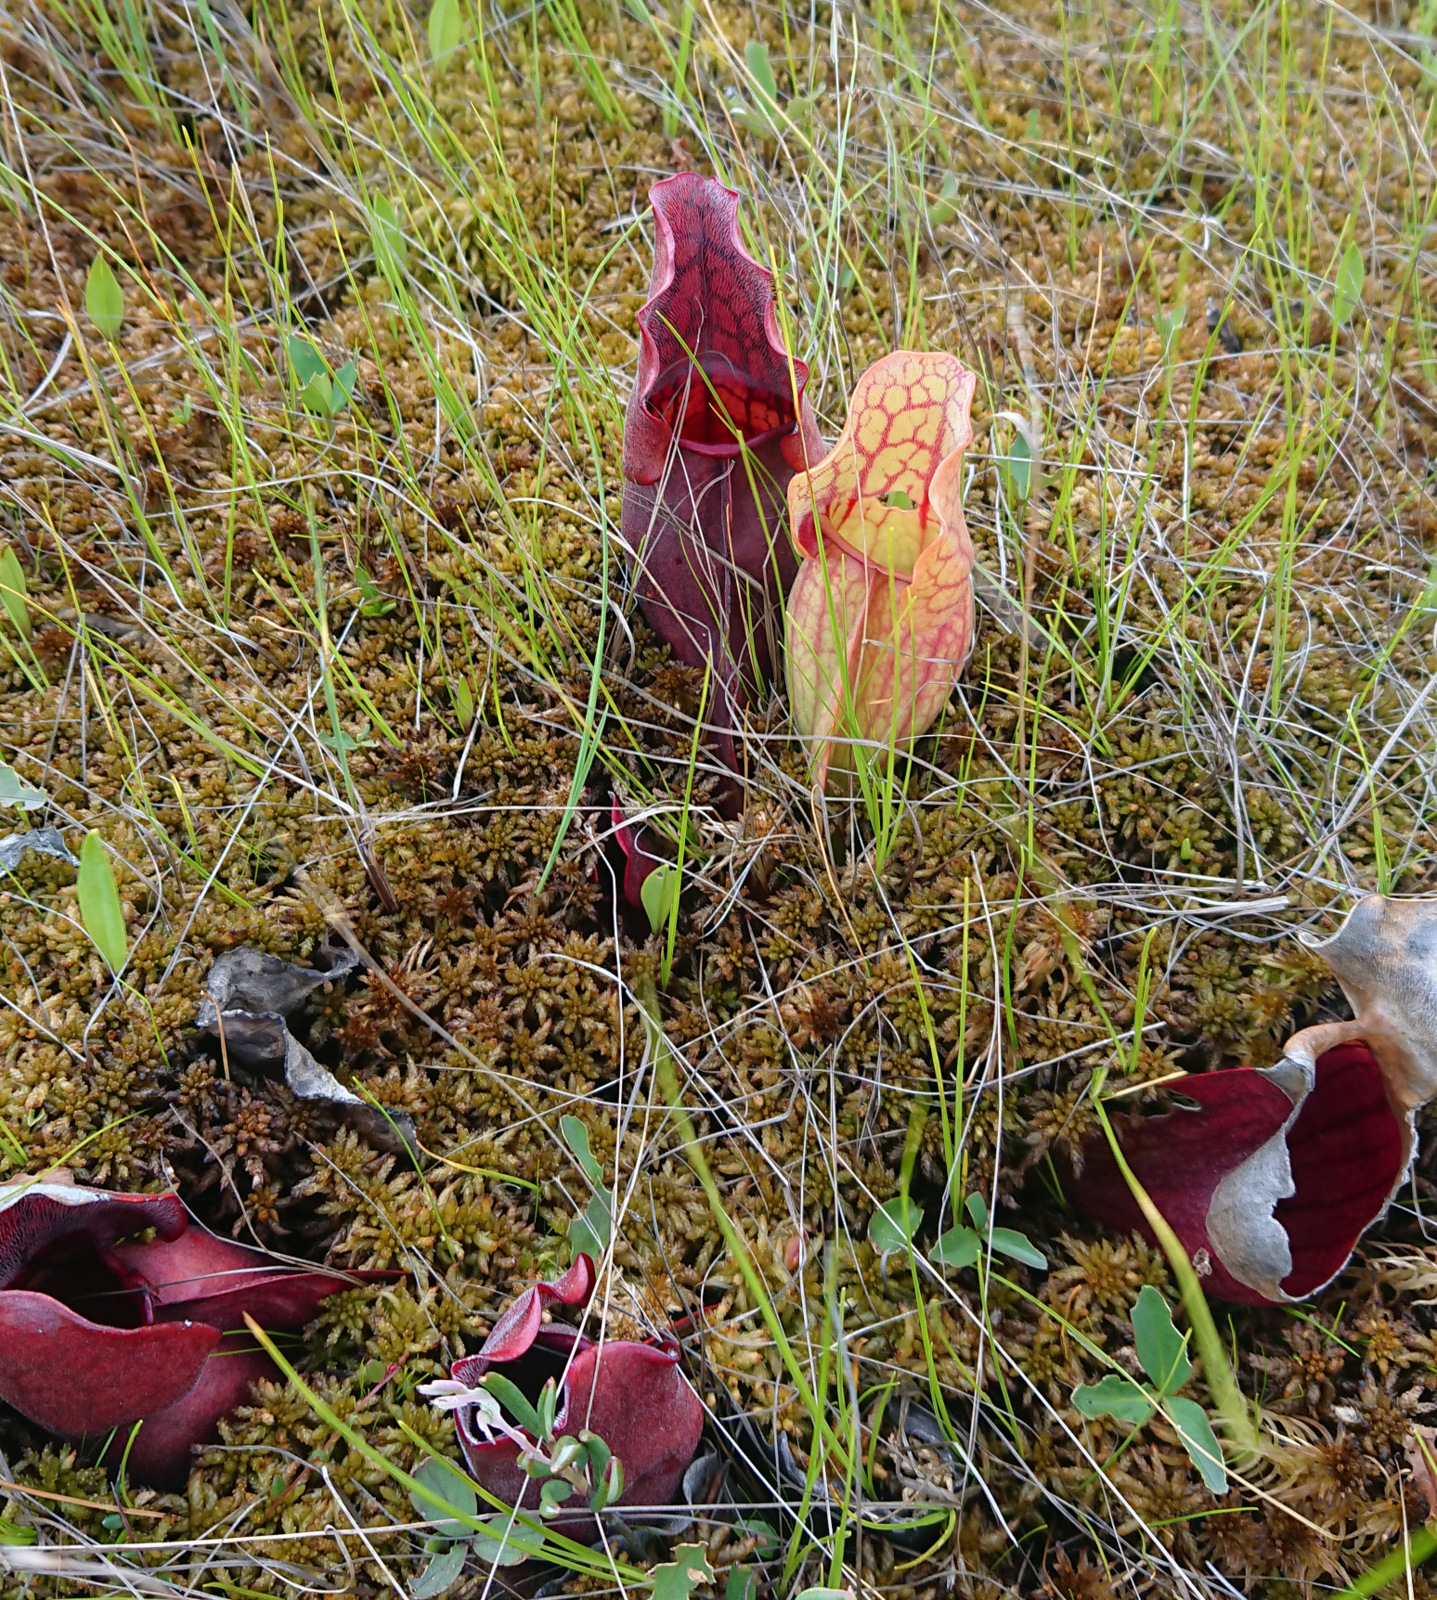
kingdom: Plantae
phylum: Tracheophyta
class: Magnoliopsida
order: Ericales
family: Sarraceniaceae
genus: Sarracenia
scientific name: Sarracenia purpurea
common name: Pitcherplant
